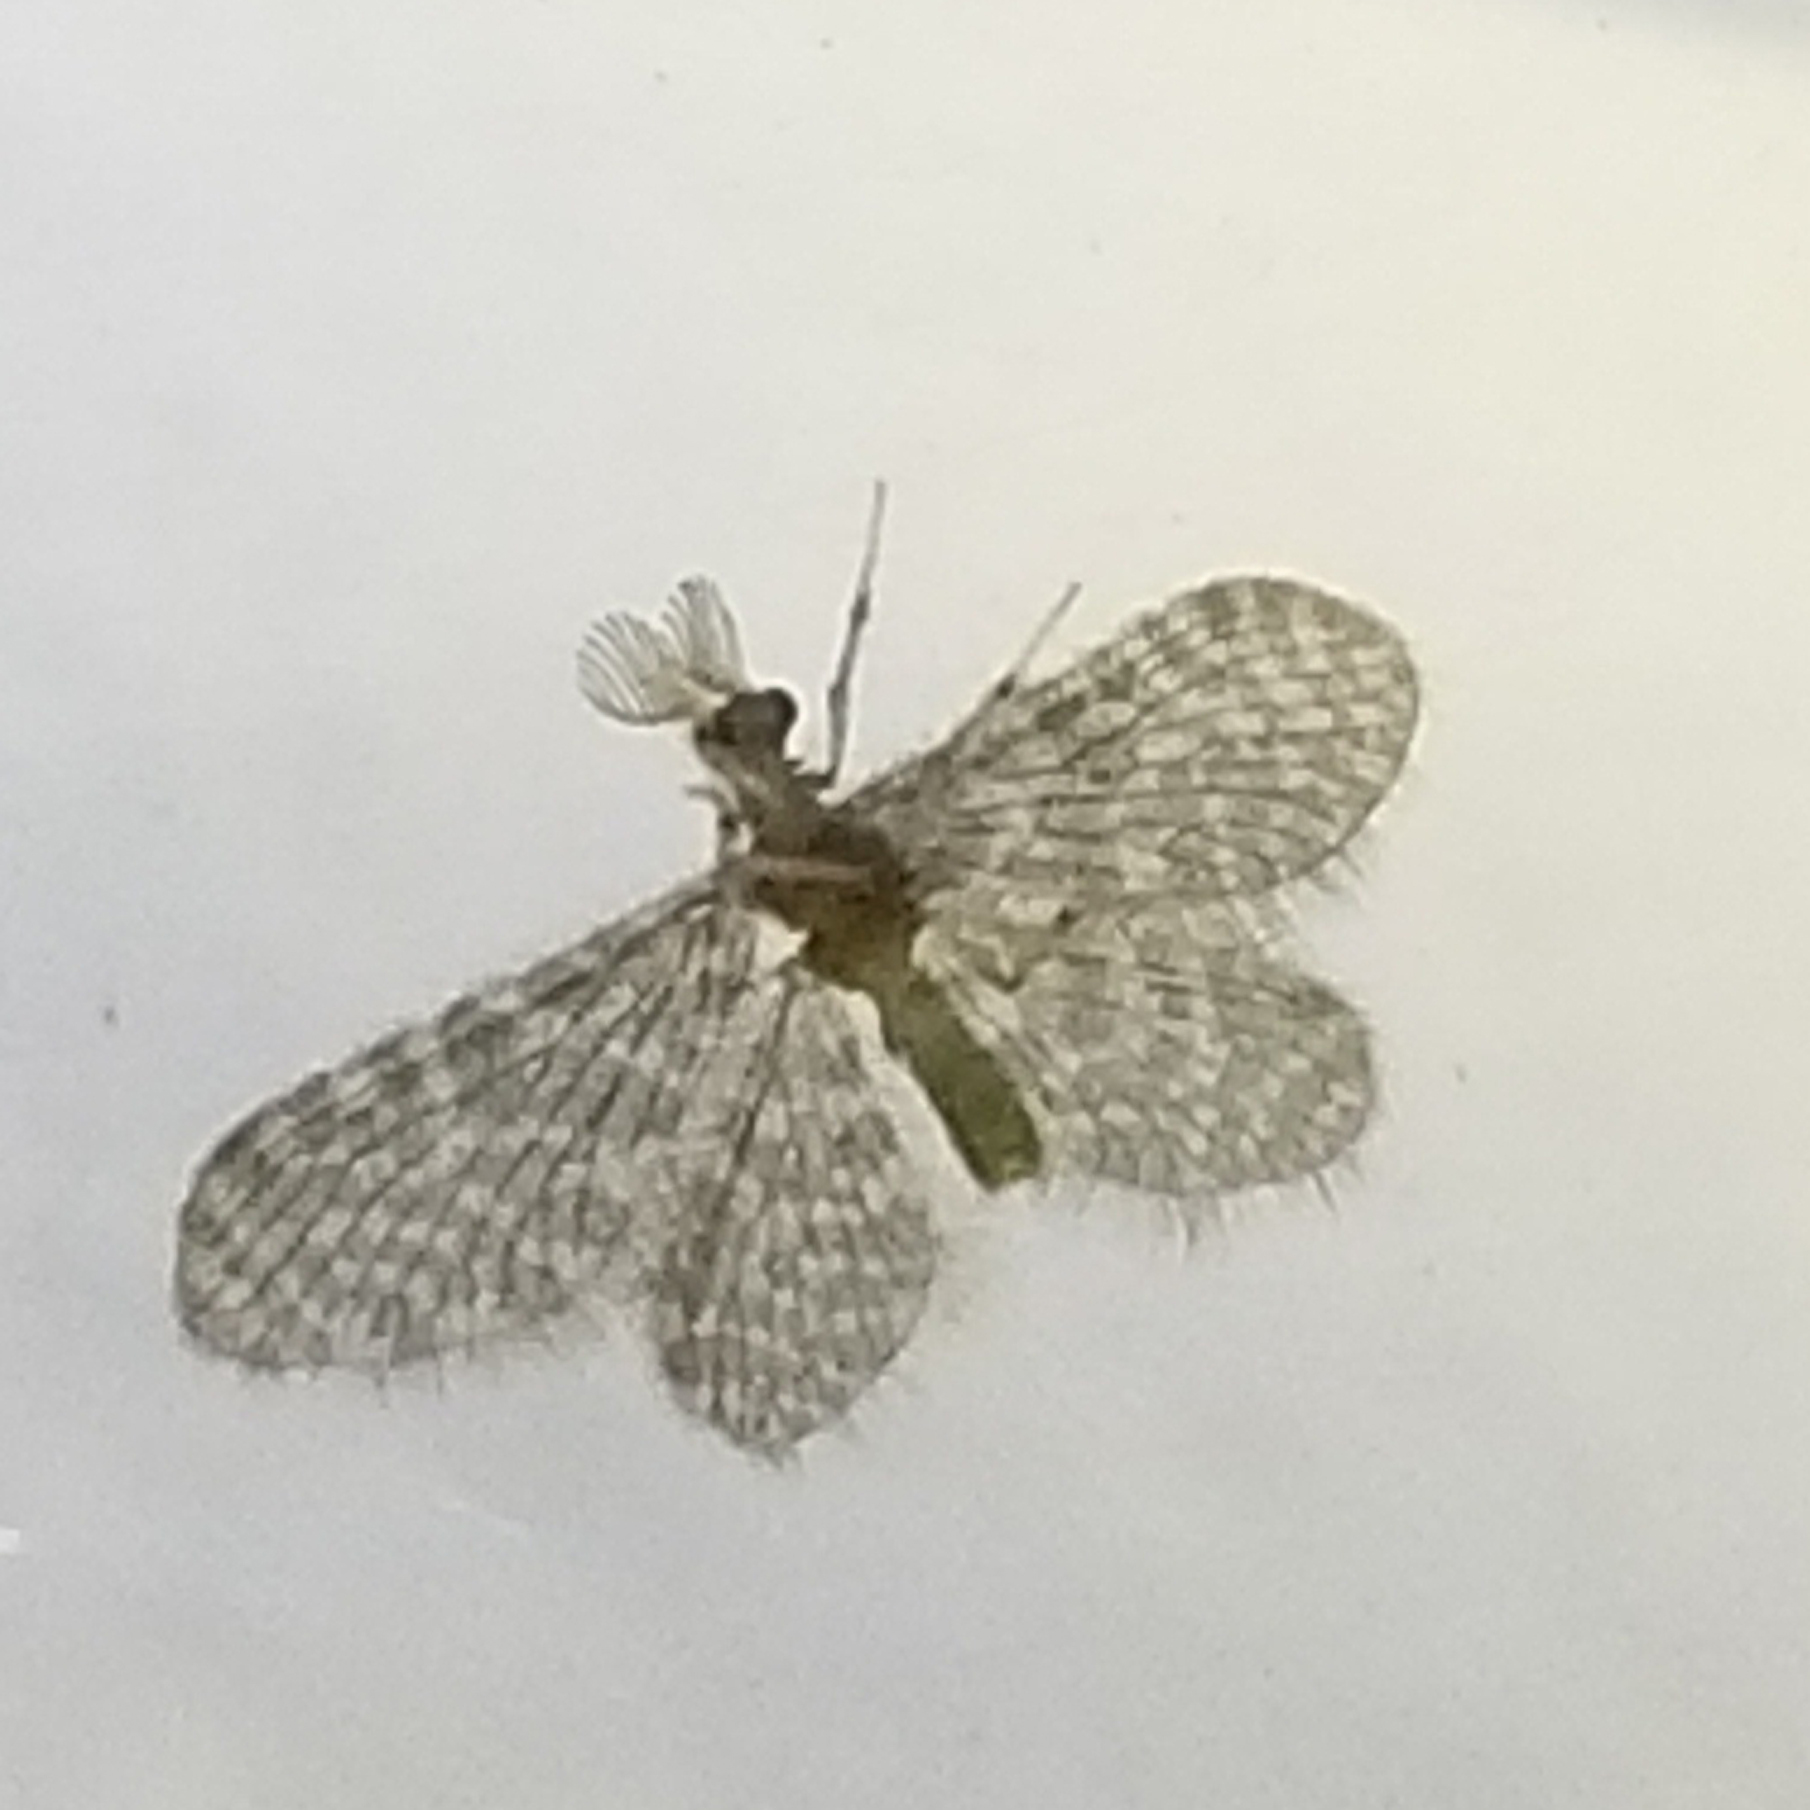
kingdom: Animalia
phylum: Arthropoda
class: Insecta
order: Neuroptera
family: Dilaridae
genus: Nallachius
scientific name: Nallachius americanus
